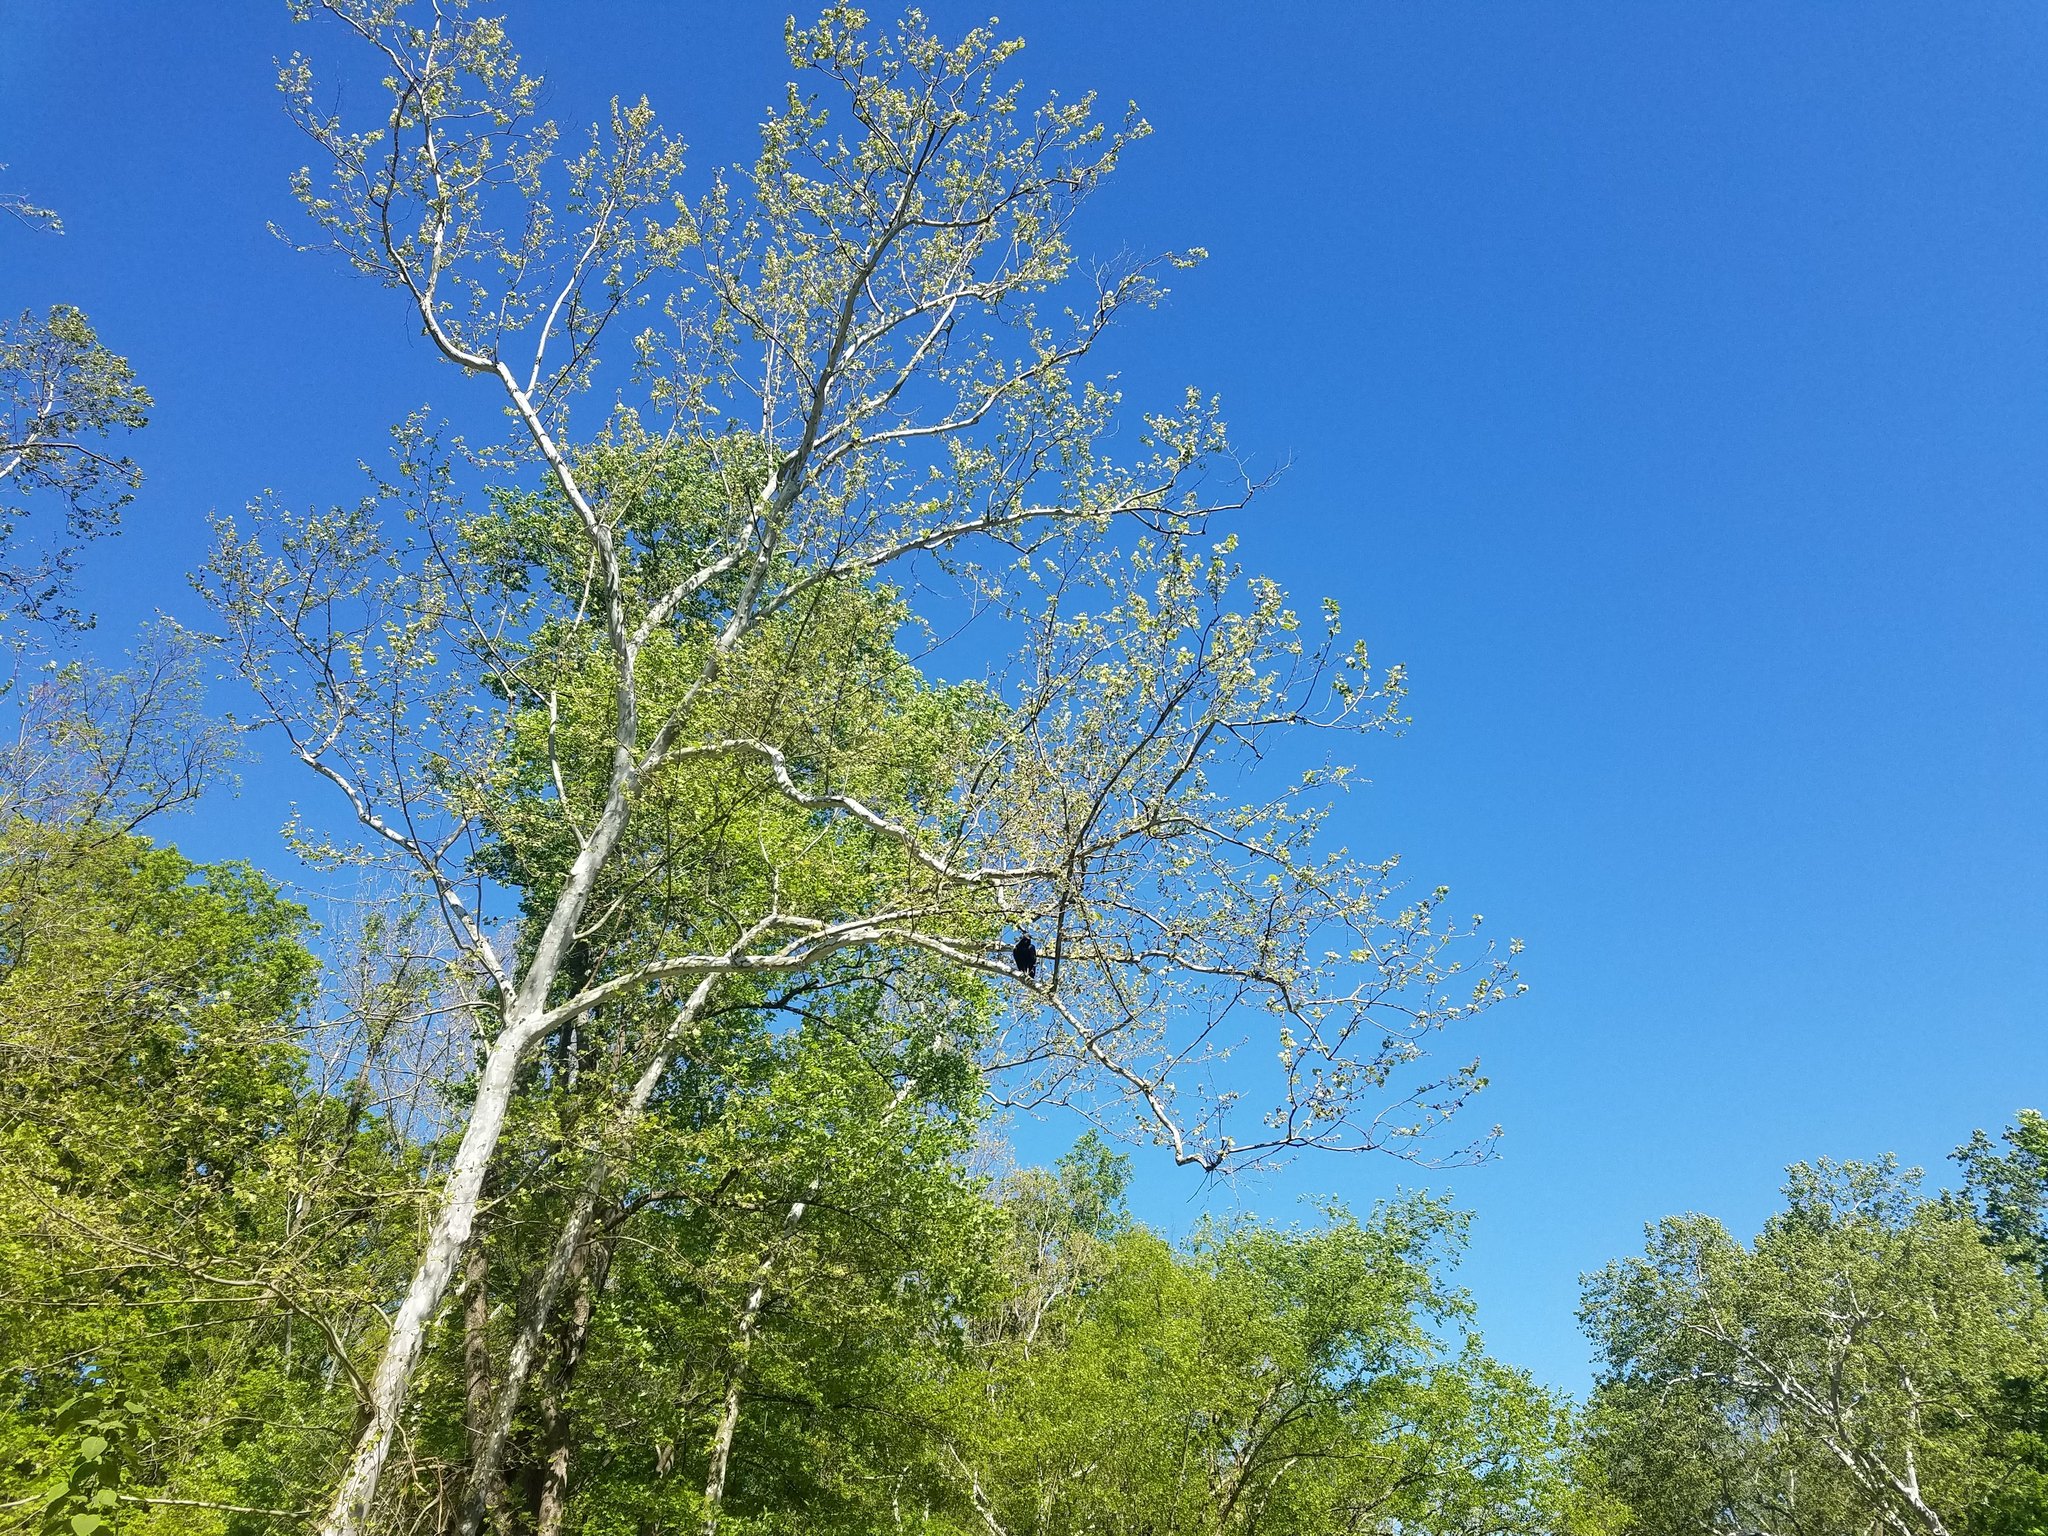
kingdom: Animalia
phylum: Chordata
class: Aves
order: Accipitriformes
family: Cathartidae
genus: Coragyps
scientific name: Coragyps atratus
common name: Black vulture
